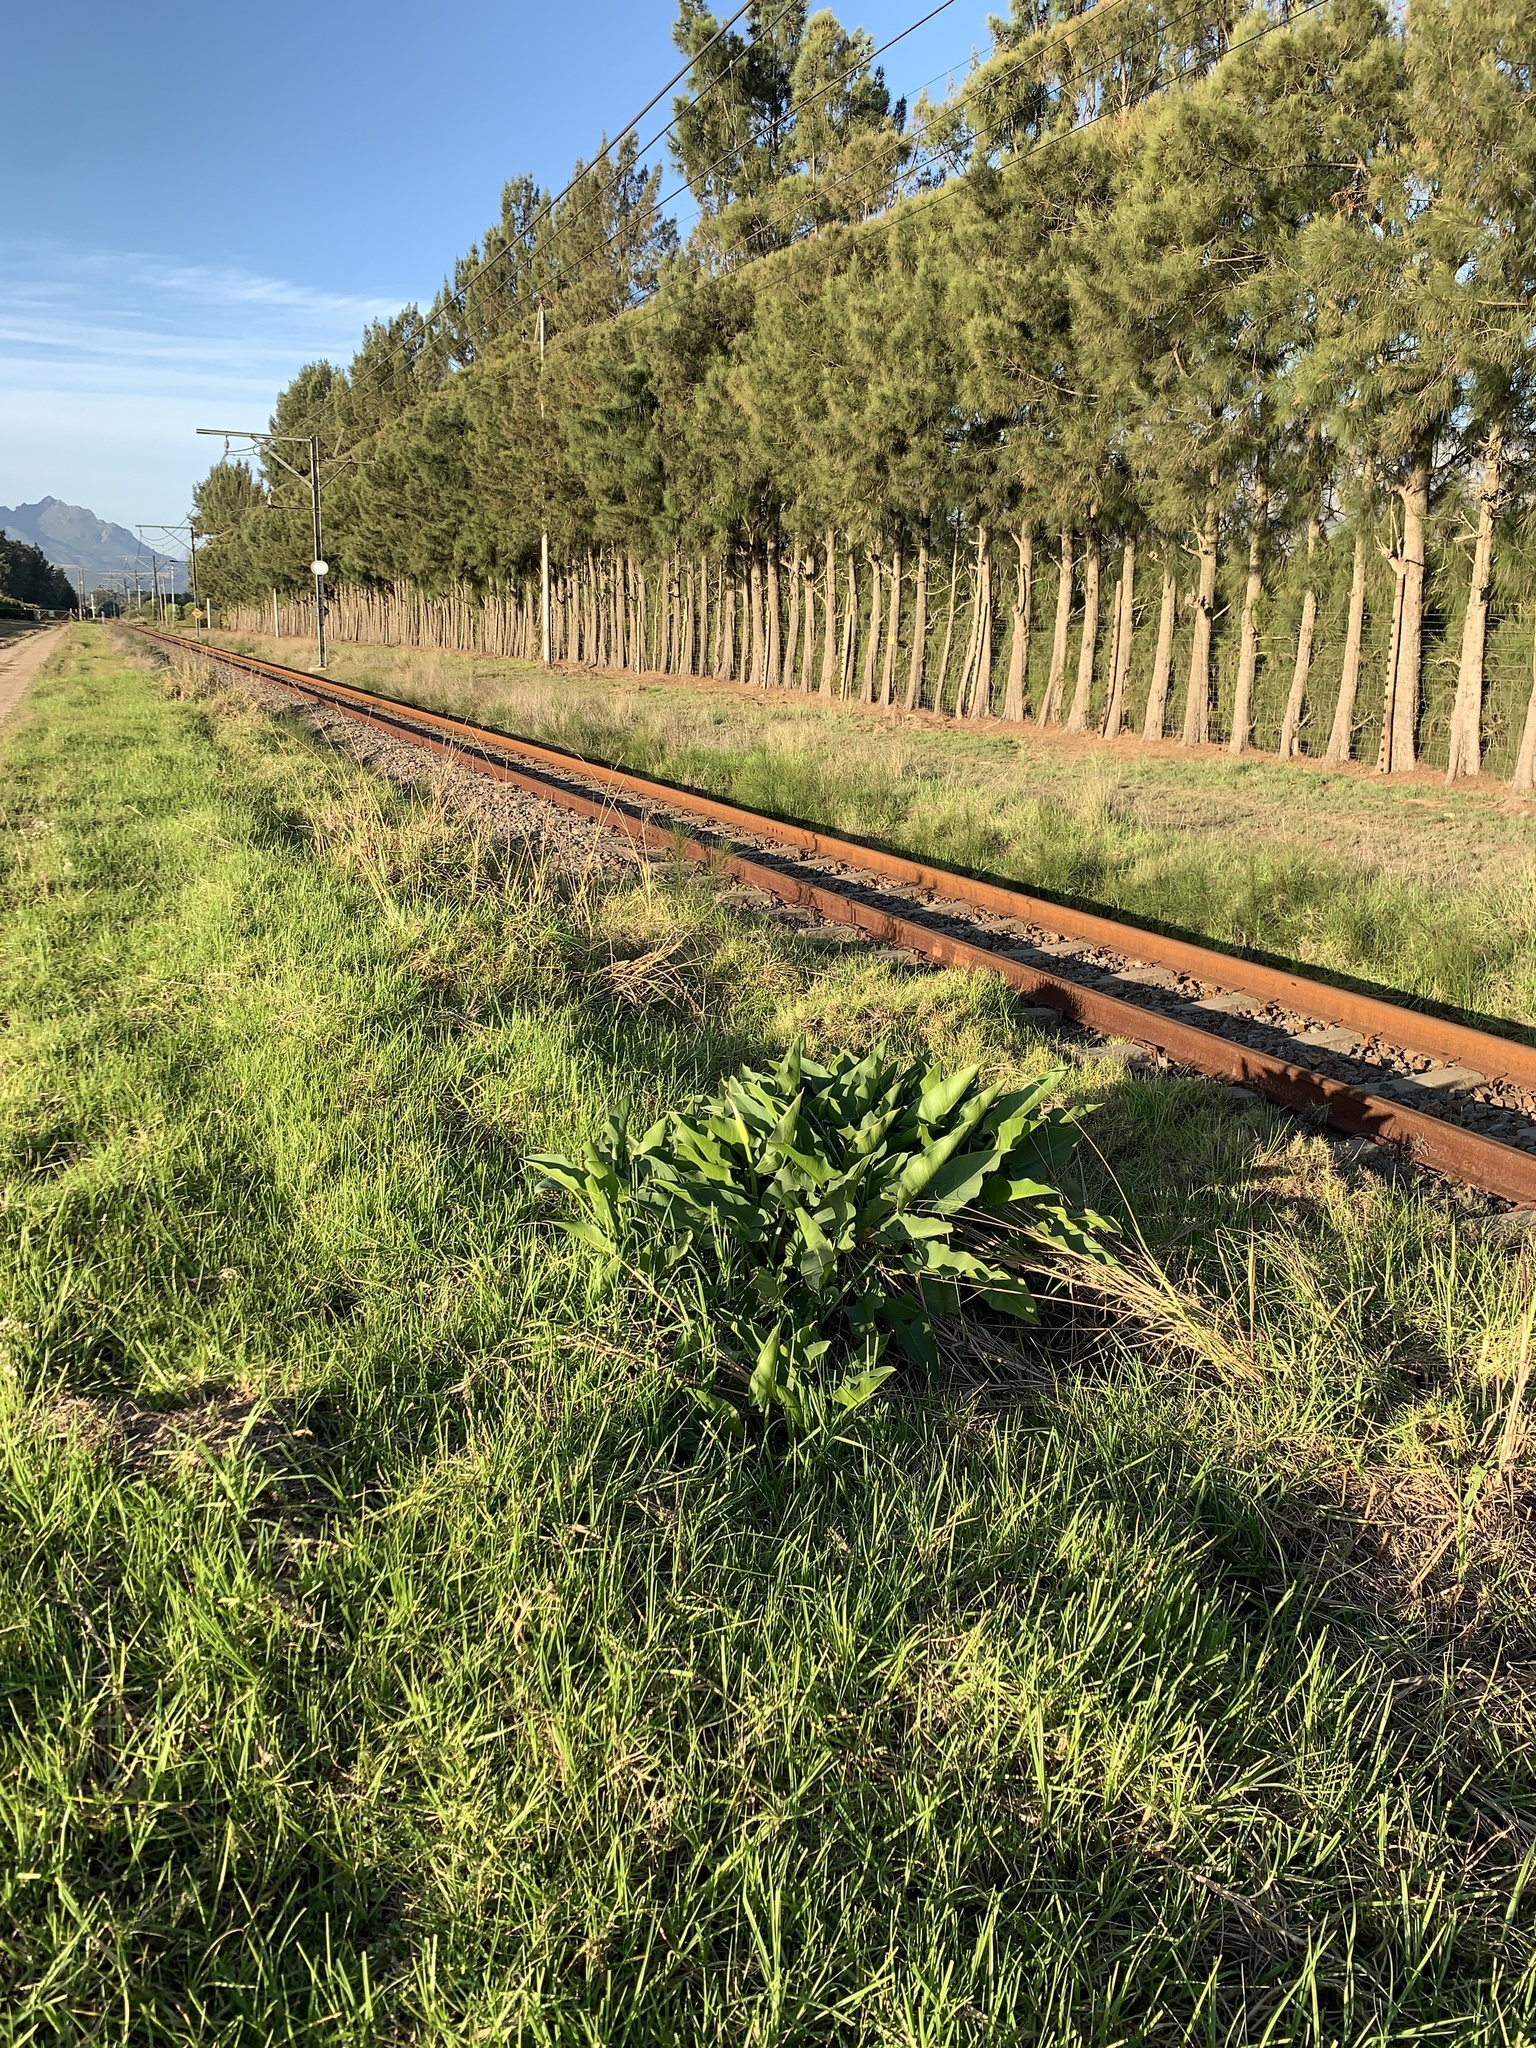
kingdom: Plantae
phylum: Tracheophyta
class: Liliopsida
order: Alismatales
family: Araceae
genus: Zantedeschia
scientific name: Zantedeschia aethiopica
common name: Altar-lily
